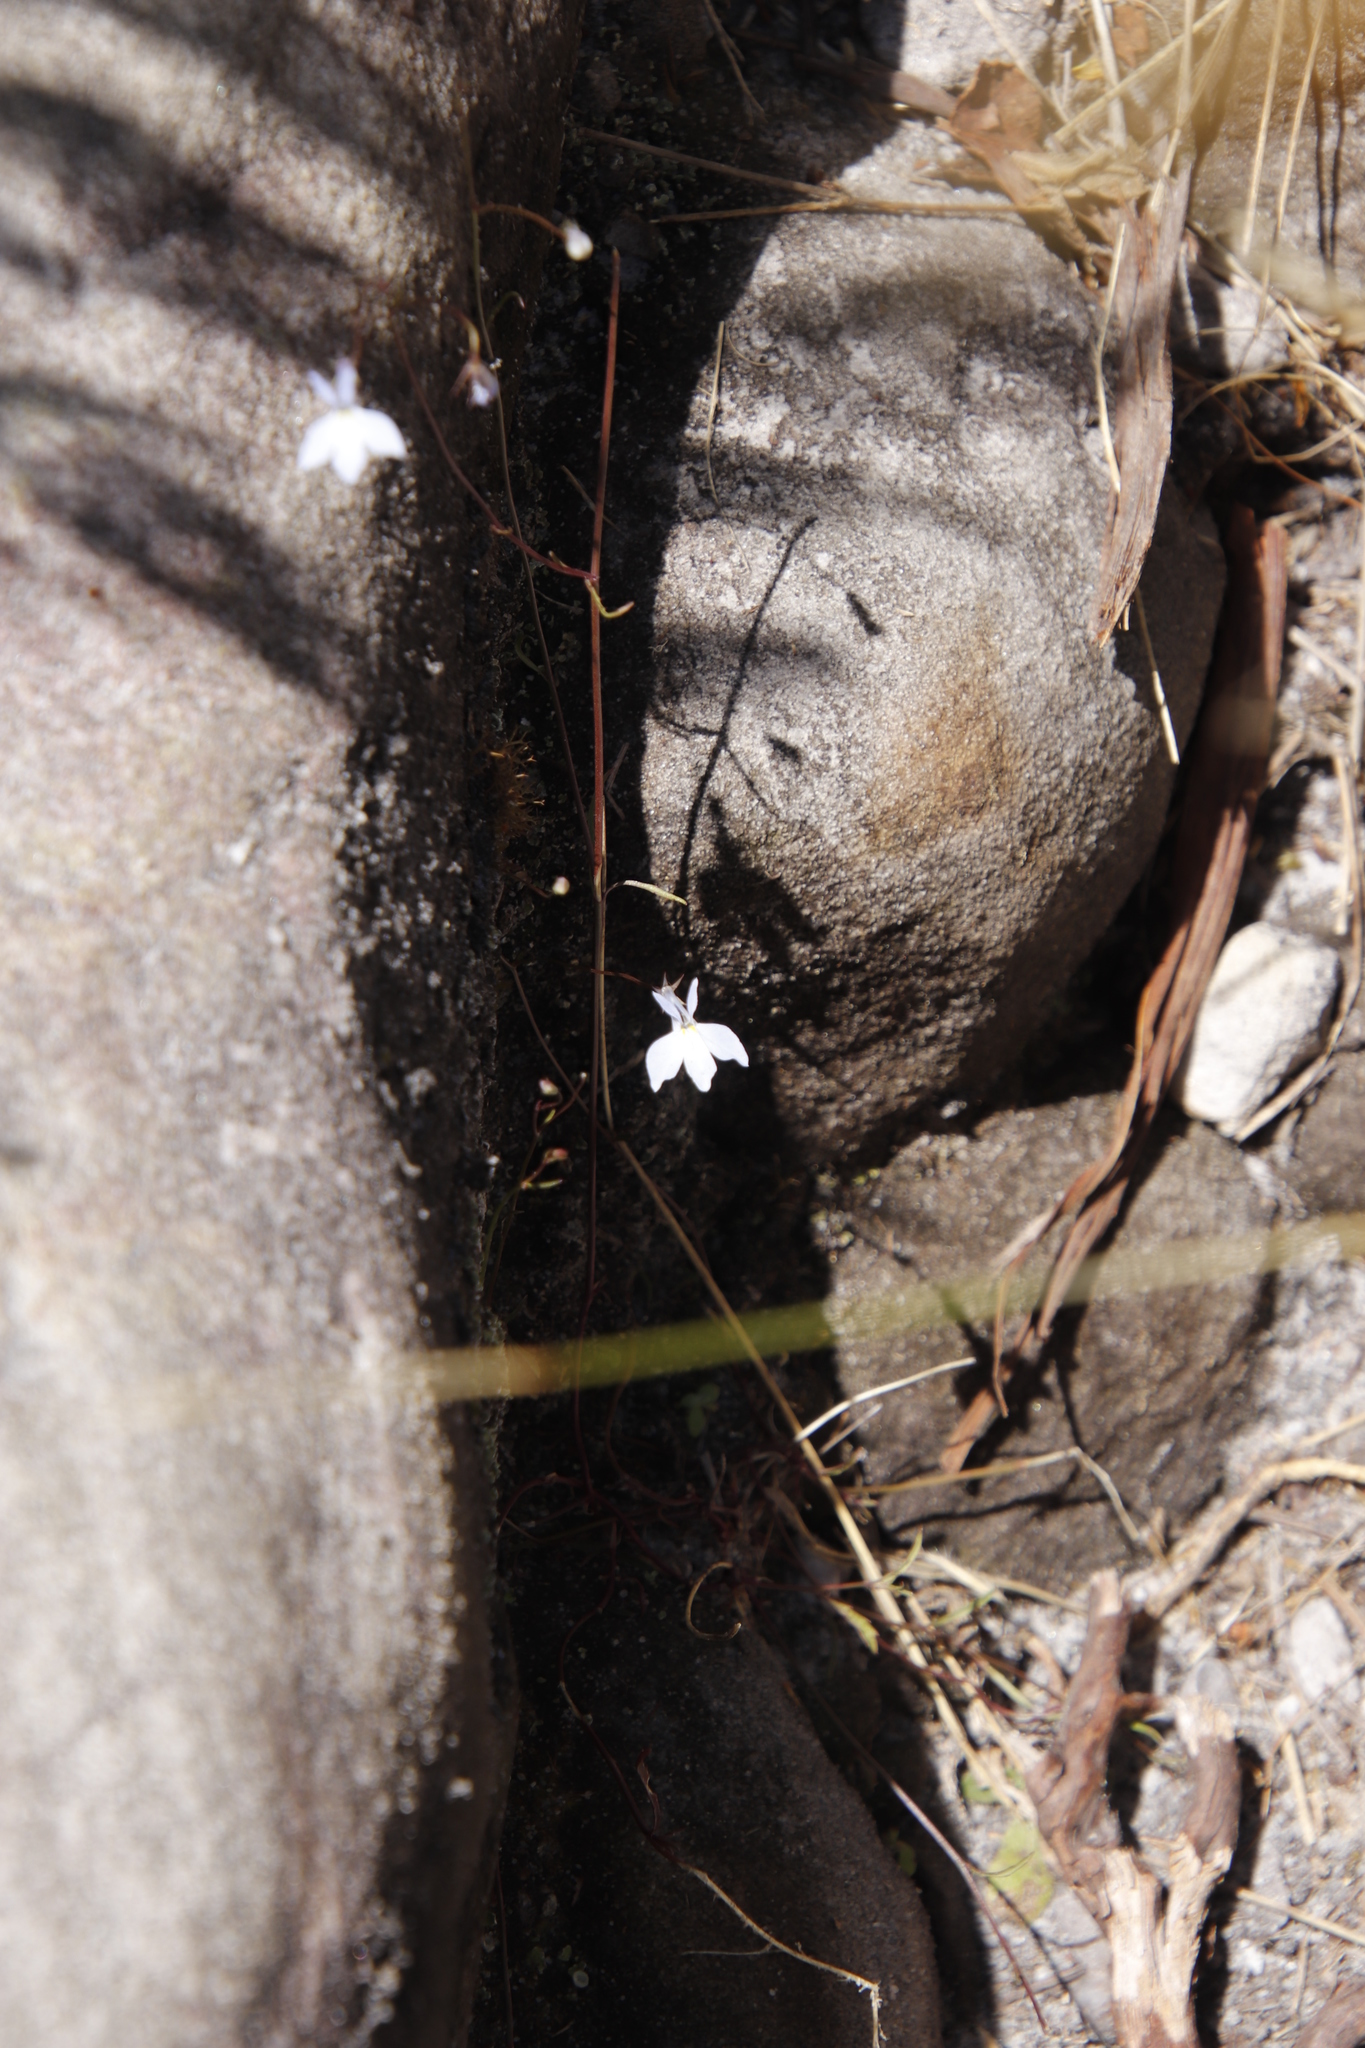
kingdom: Plantae
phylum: Tracheophyta
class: Magnoliopsida
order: Asterales
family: Campanulaceae
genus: Lobelia
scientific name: Lobelia erinus
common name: Edging lobelia
